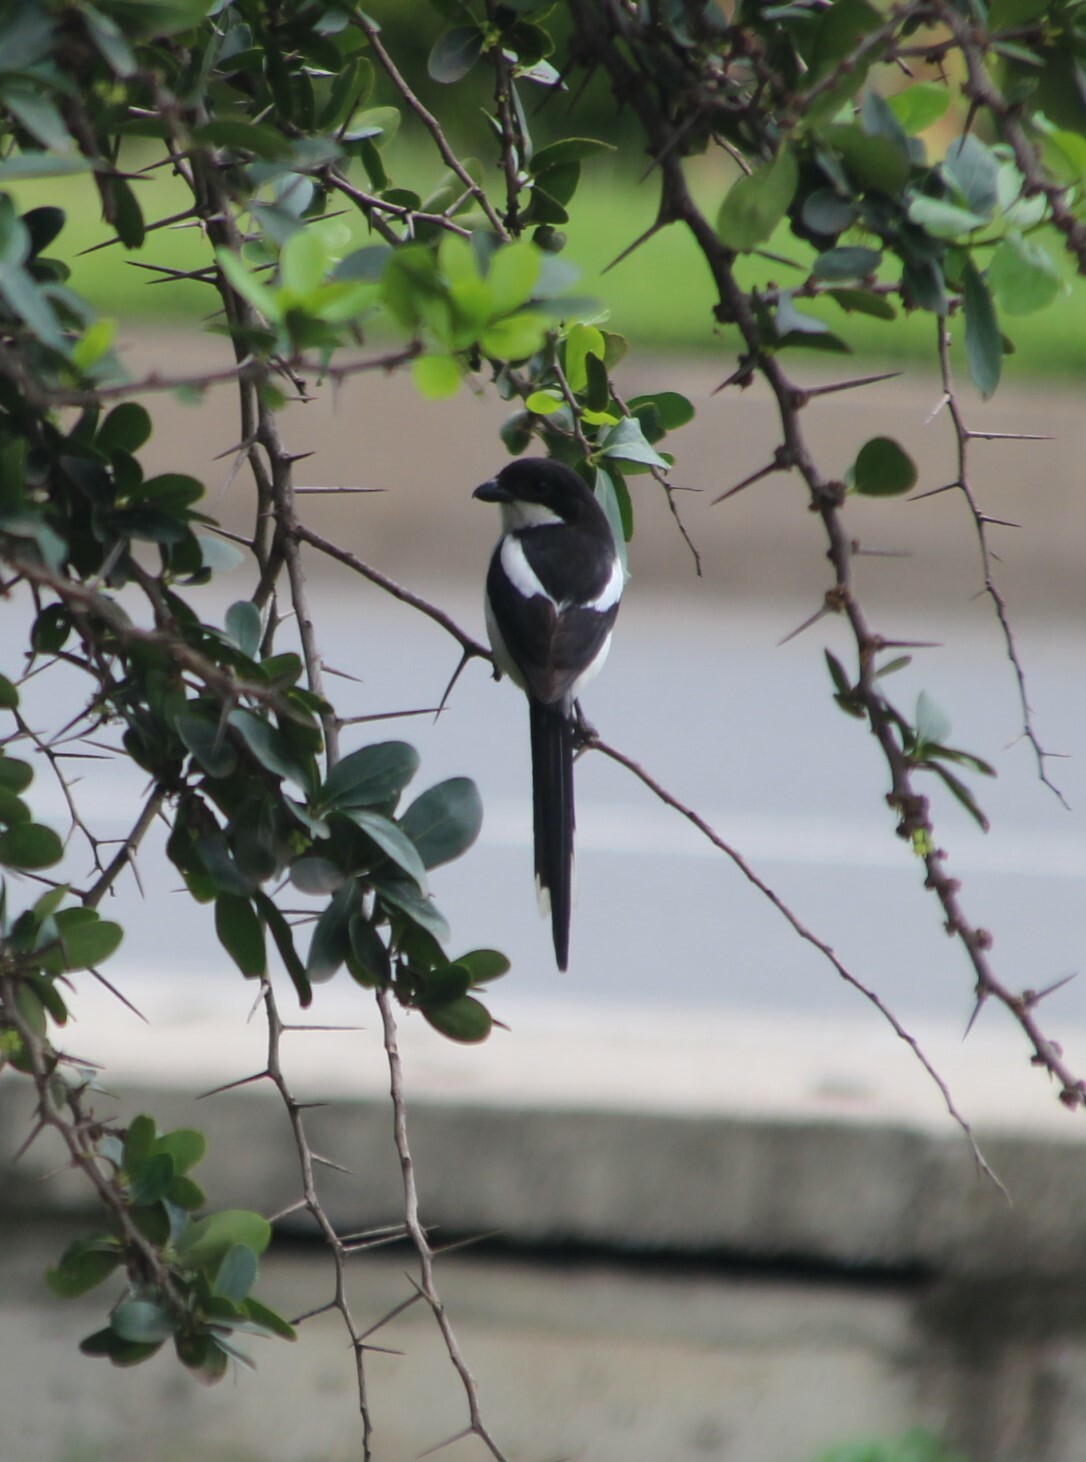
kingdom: Animalia
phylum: Chordata
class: Aves
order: Passeriformes
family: Laniidae
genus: Lanius
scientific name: Lanius humeralis
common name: Northern fiscal
